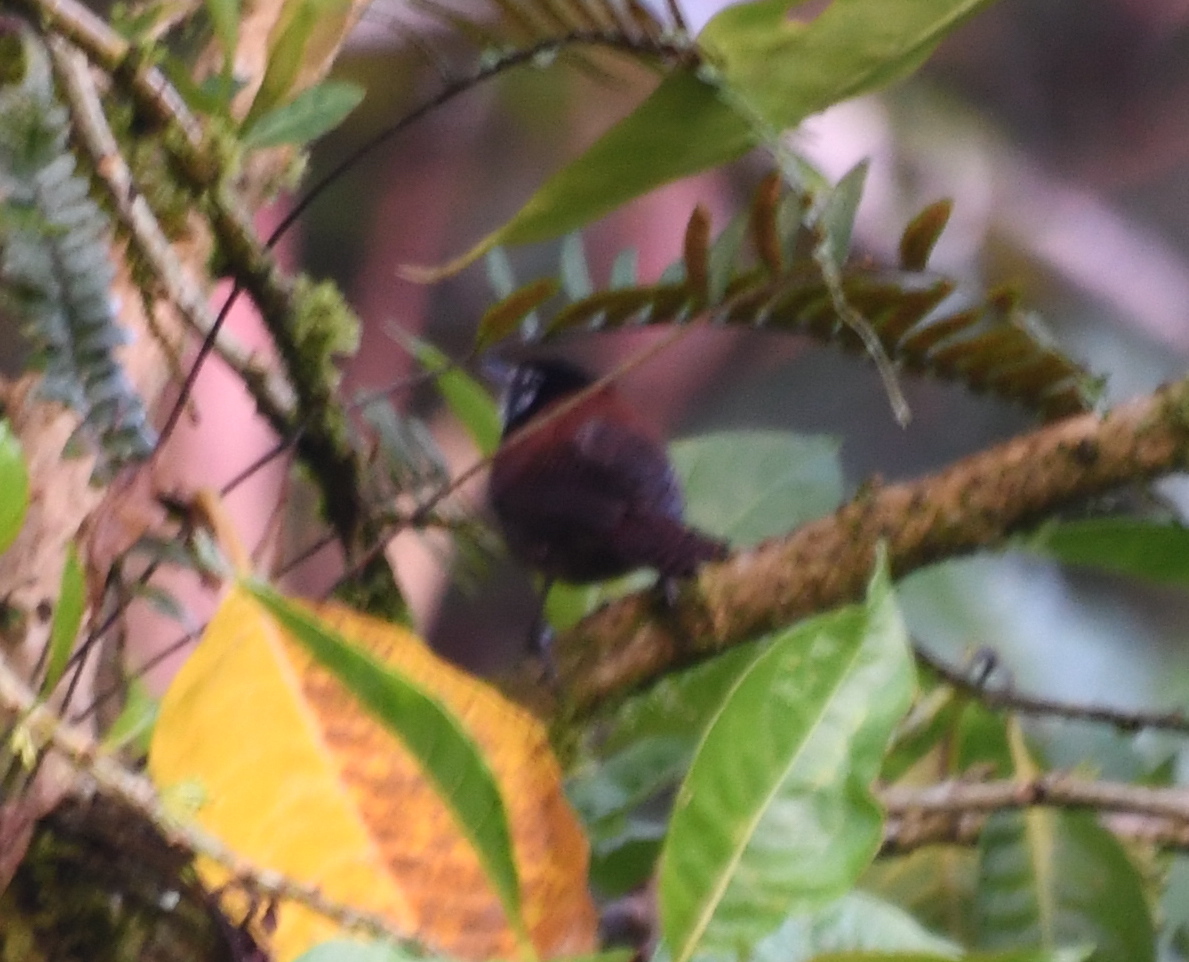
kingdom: Animalia
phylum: Chordata
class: Aves
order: Passeriformes
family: Troglodytidae
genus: Cantorchilus
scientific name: Cantorchilus nigricapillus
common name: Bay wren
